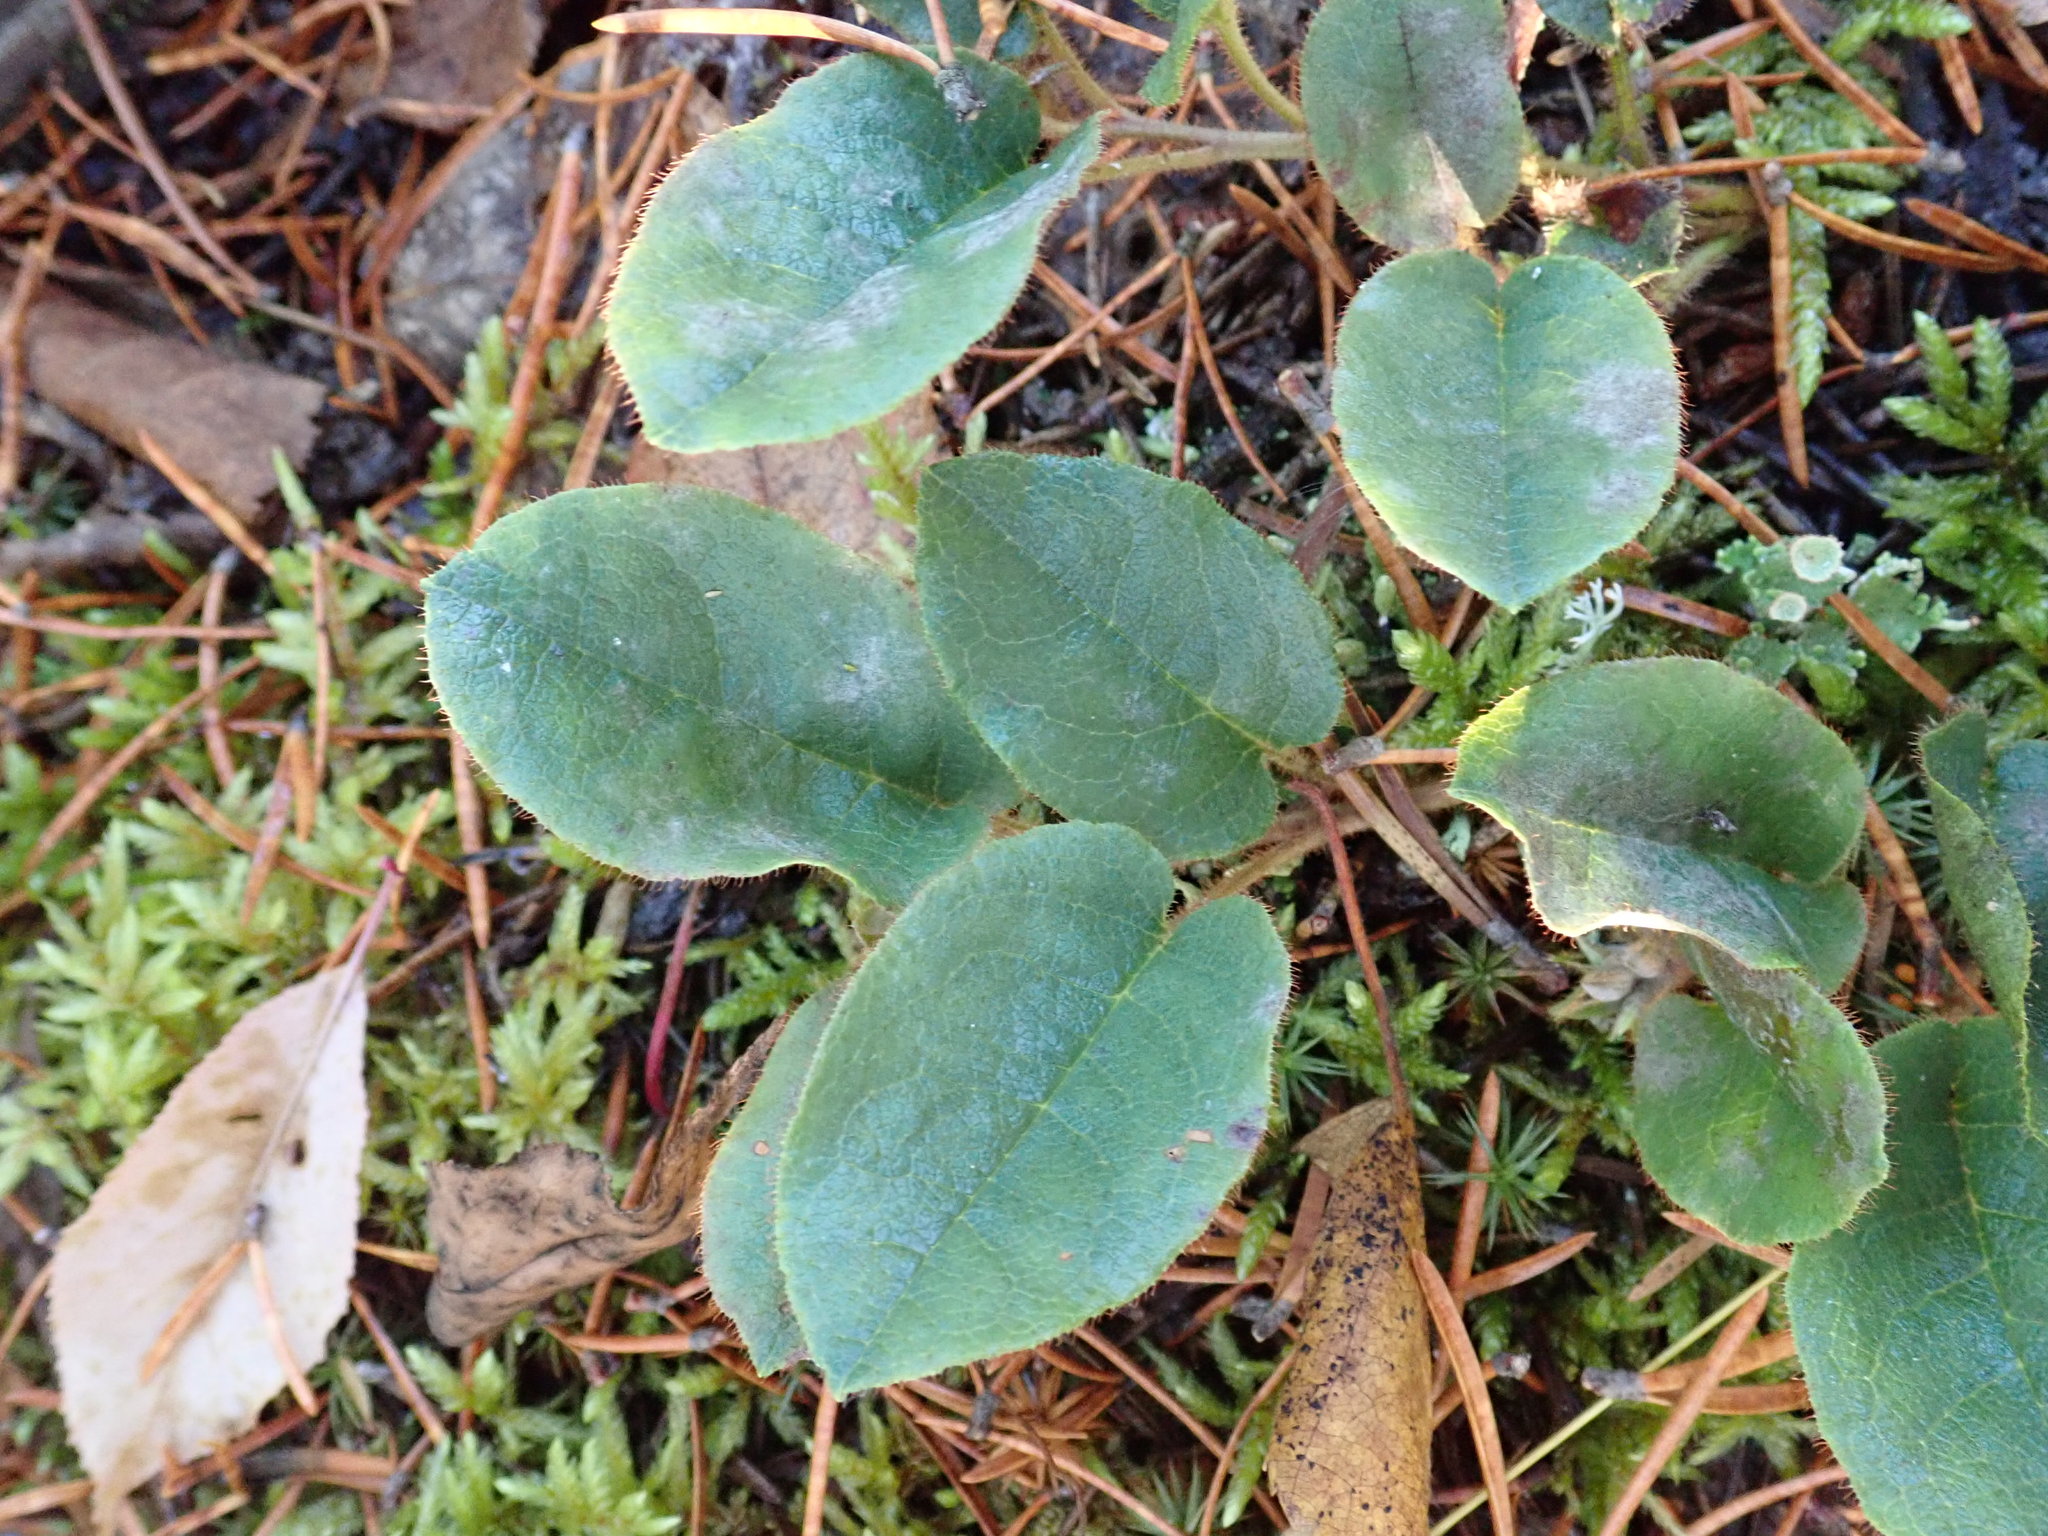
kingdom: Plantae
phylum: Tracheophyta
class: Magnoliopsida
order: Ericales
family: Ericaceae
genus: Epigaea
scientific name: Epigaea repens
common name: Gravelroot
